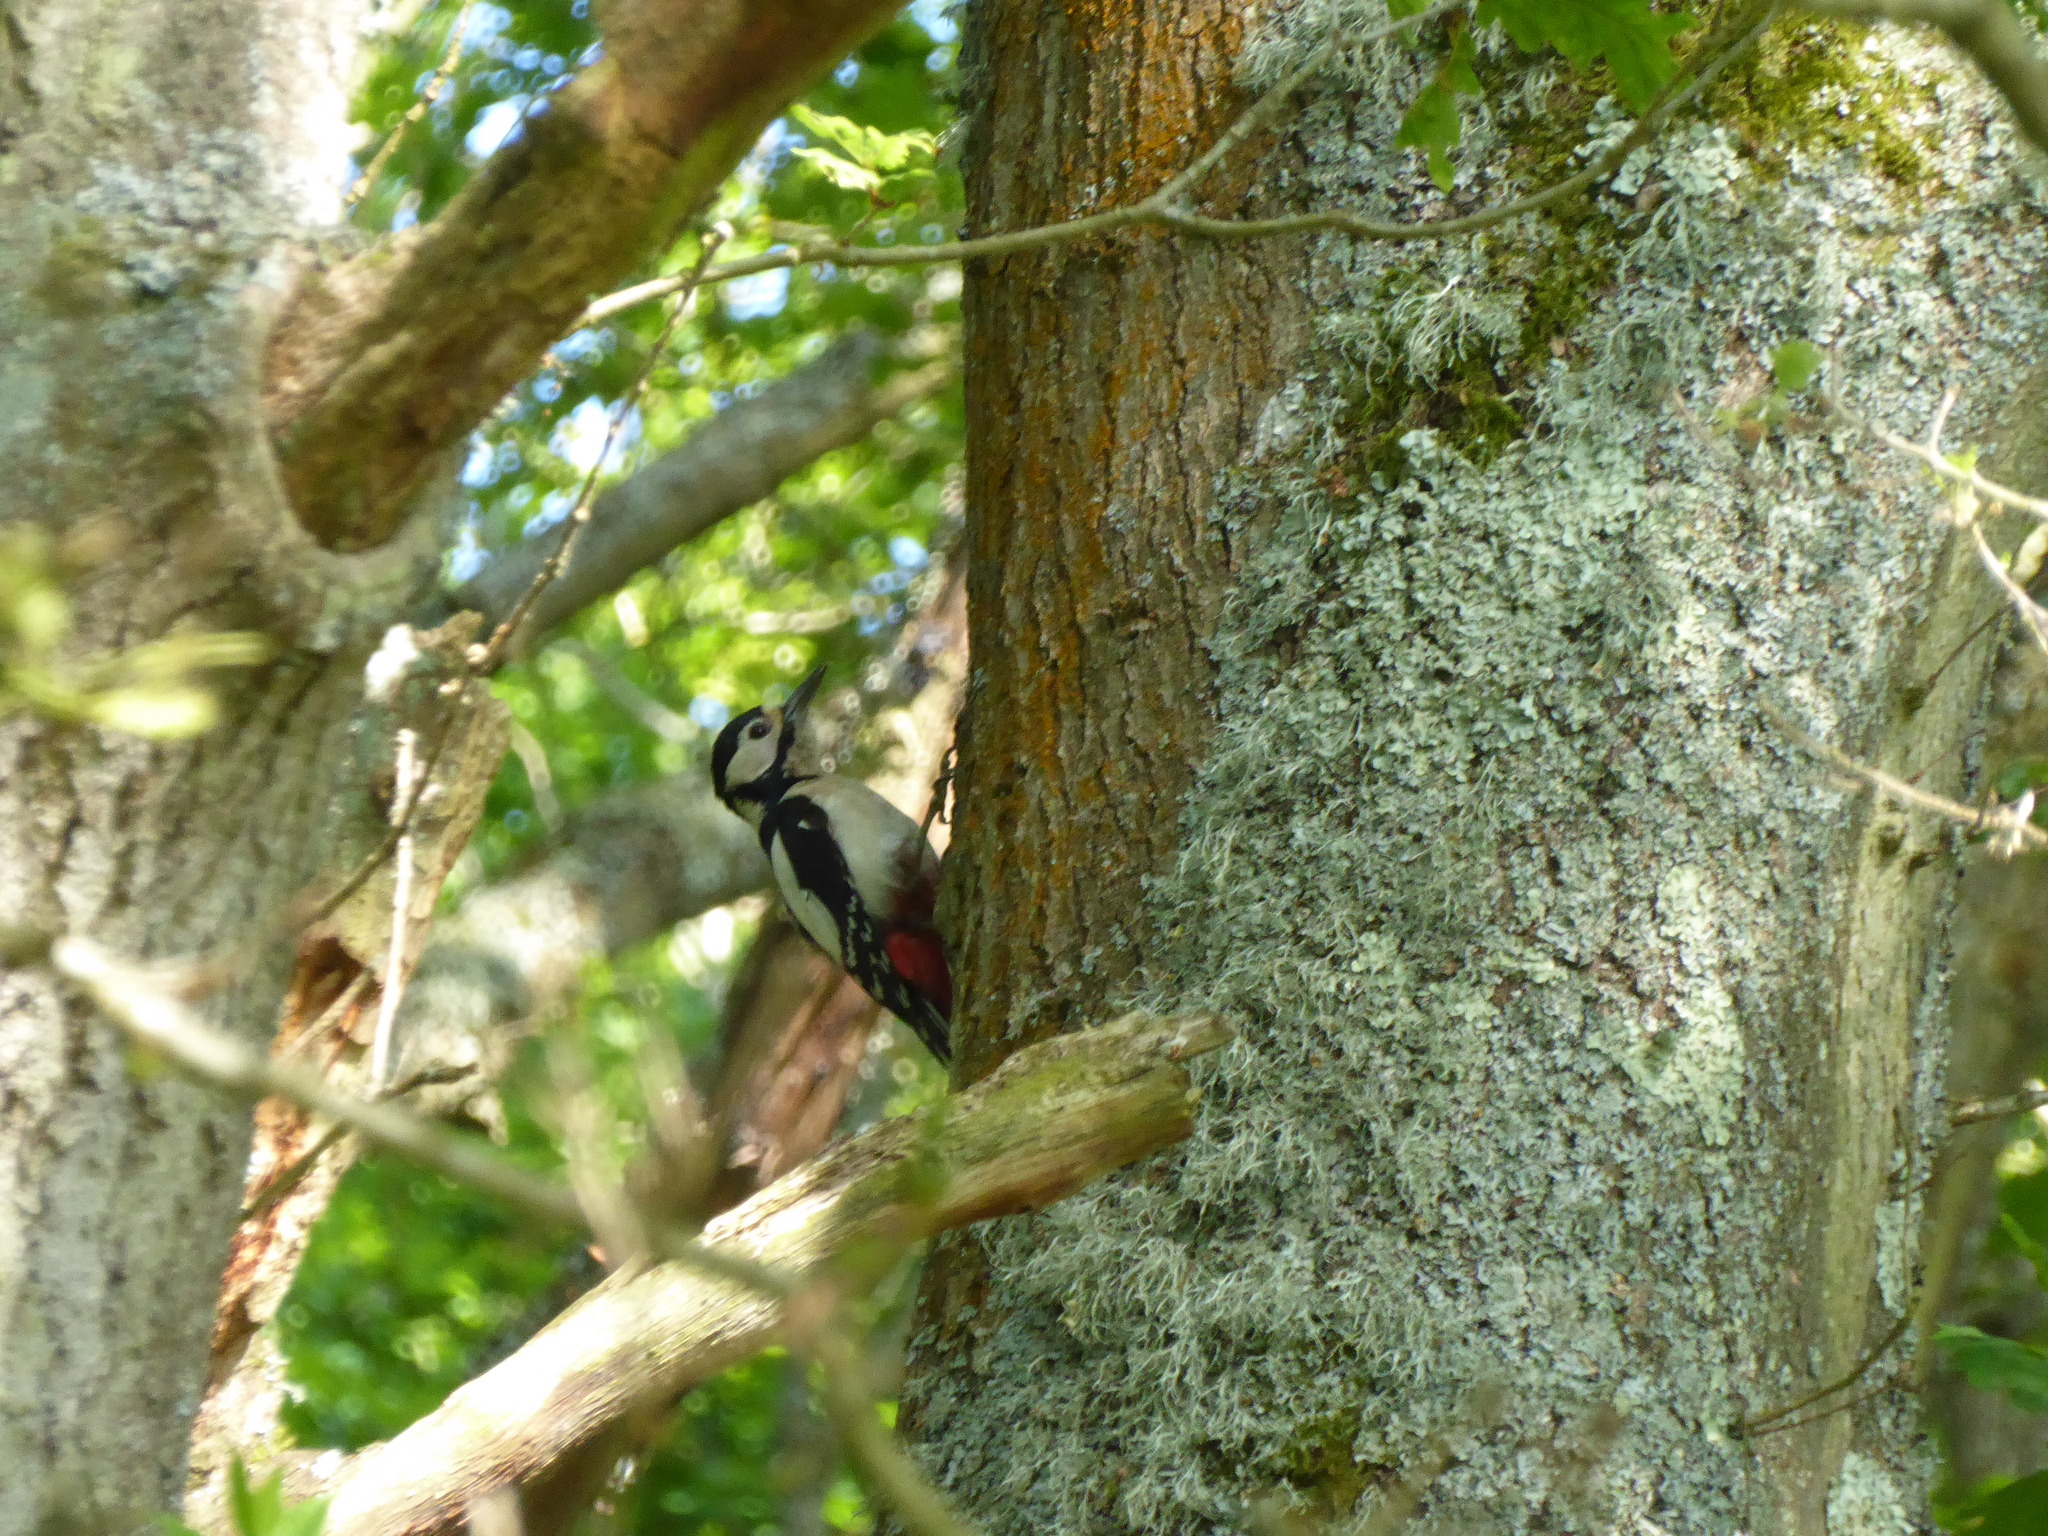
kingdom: Animalia
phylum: Chordata
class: Aves
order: Piciformes
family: Picidae
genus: Dendrocopos
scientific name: Dendrocopos major
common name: Great spotted woodpecker
